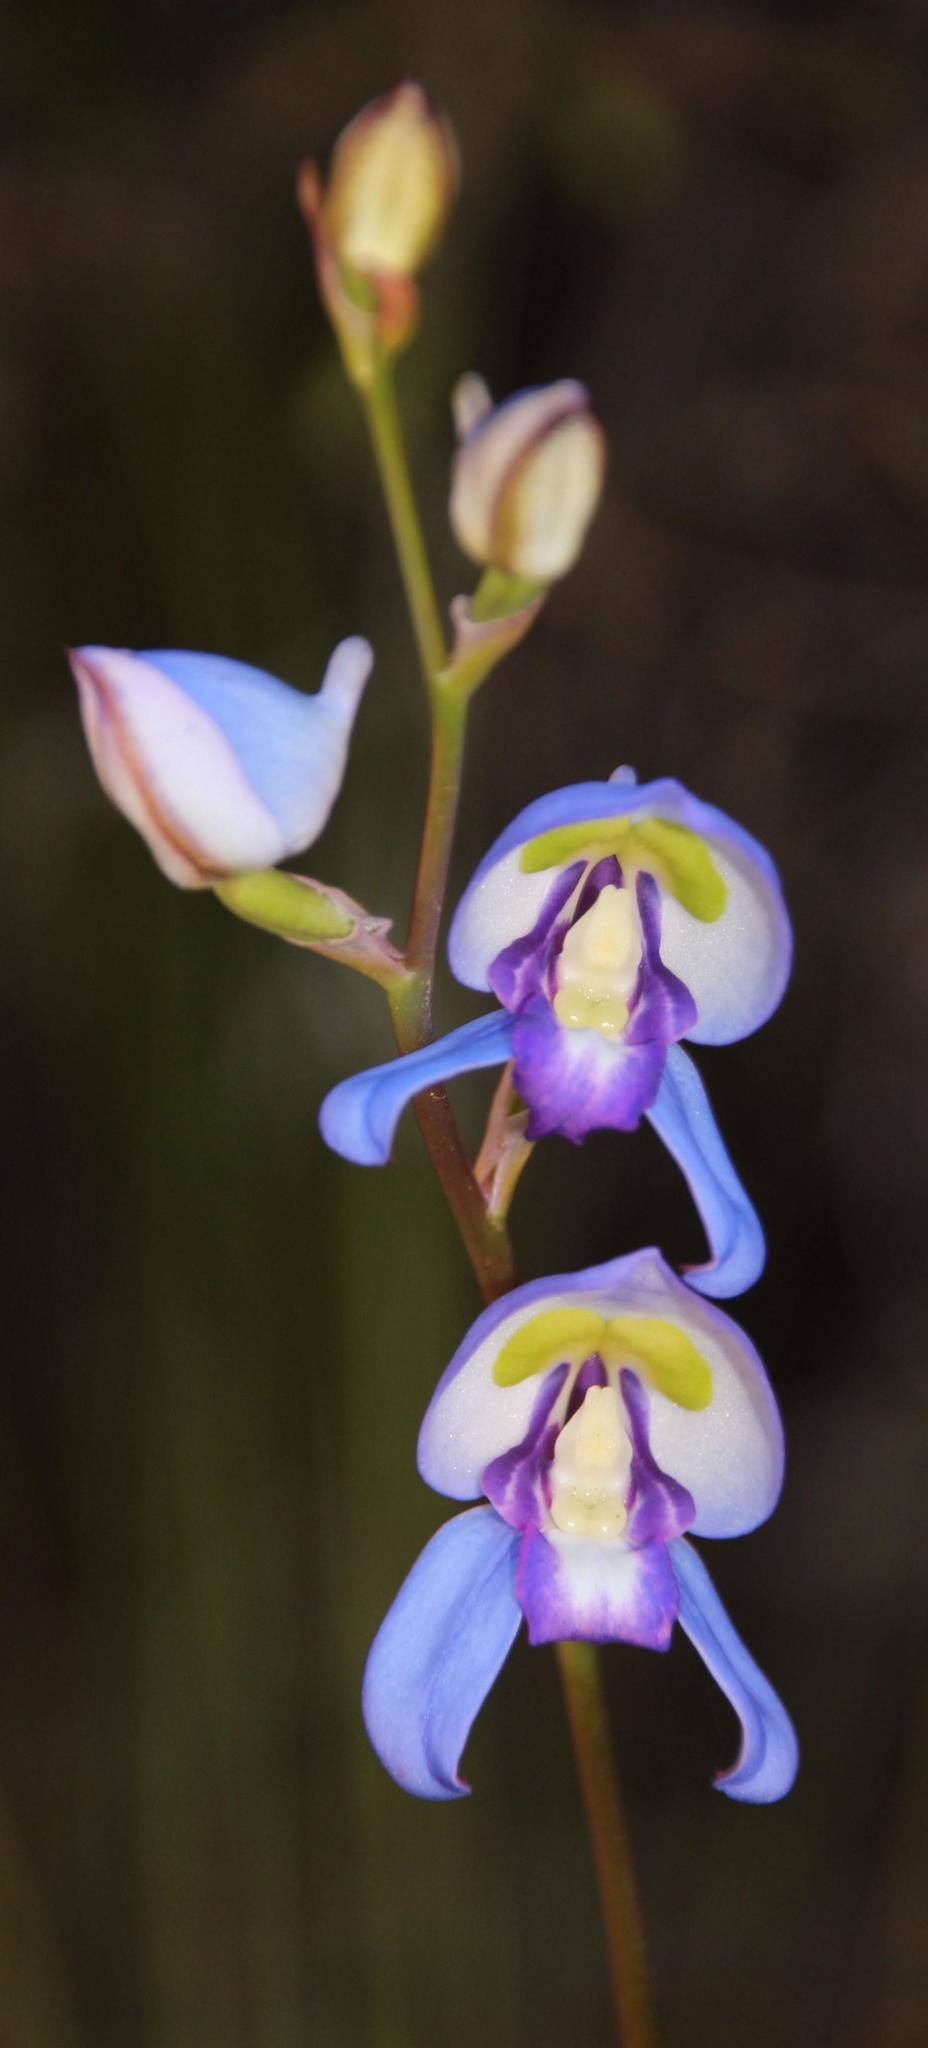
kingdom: Plantae
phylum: Tracheophyta
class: Liliopsida
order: Asparagales
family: Orchidaceae
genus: Disa
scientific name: Disa graminifolia
